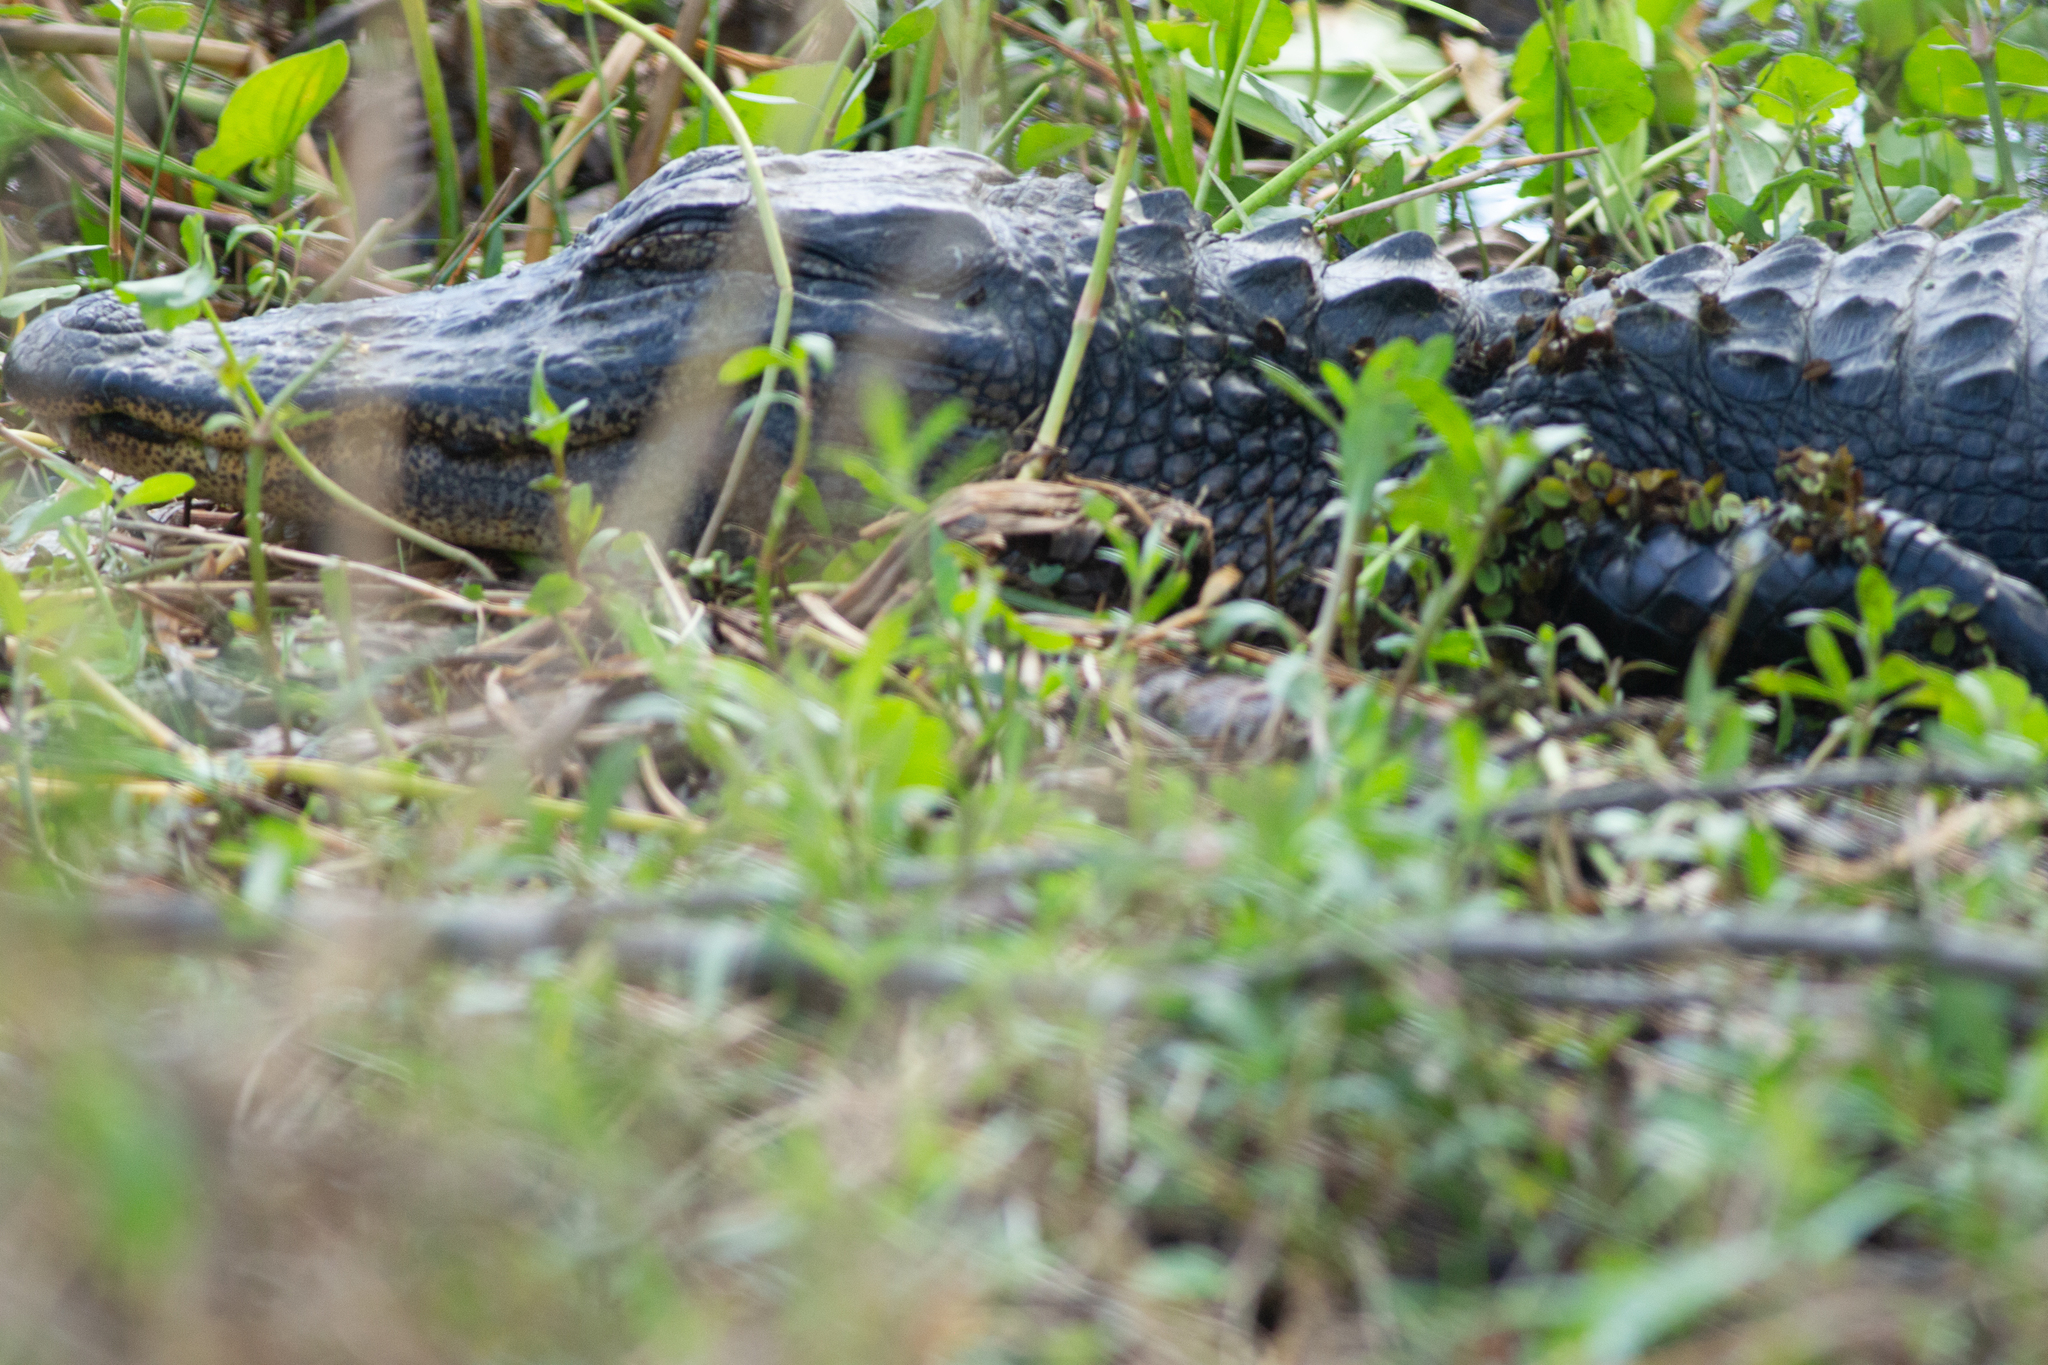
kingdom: Animalia
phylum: Chordata
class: Crocodylia
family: Alligatoridae
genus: Alligator
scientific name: Alligator mississippiensis
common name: American alligator
